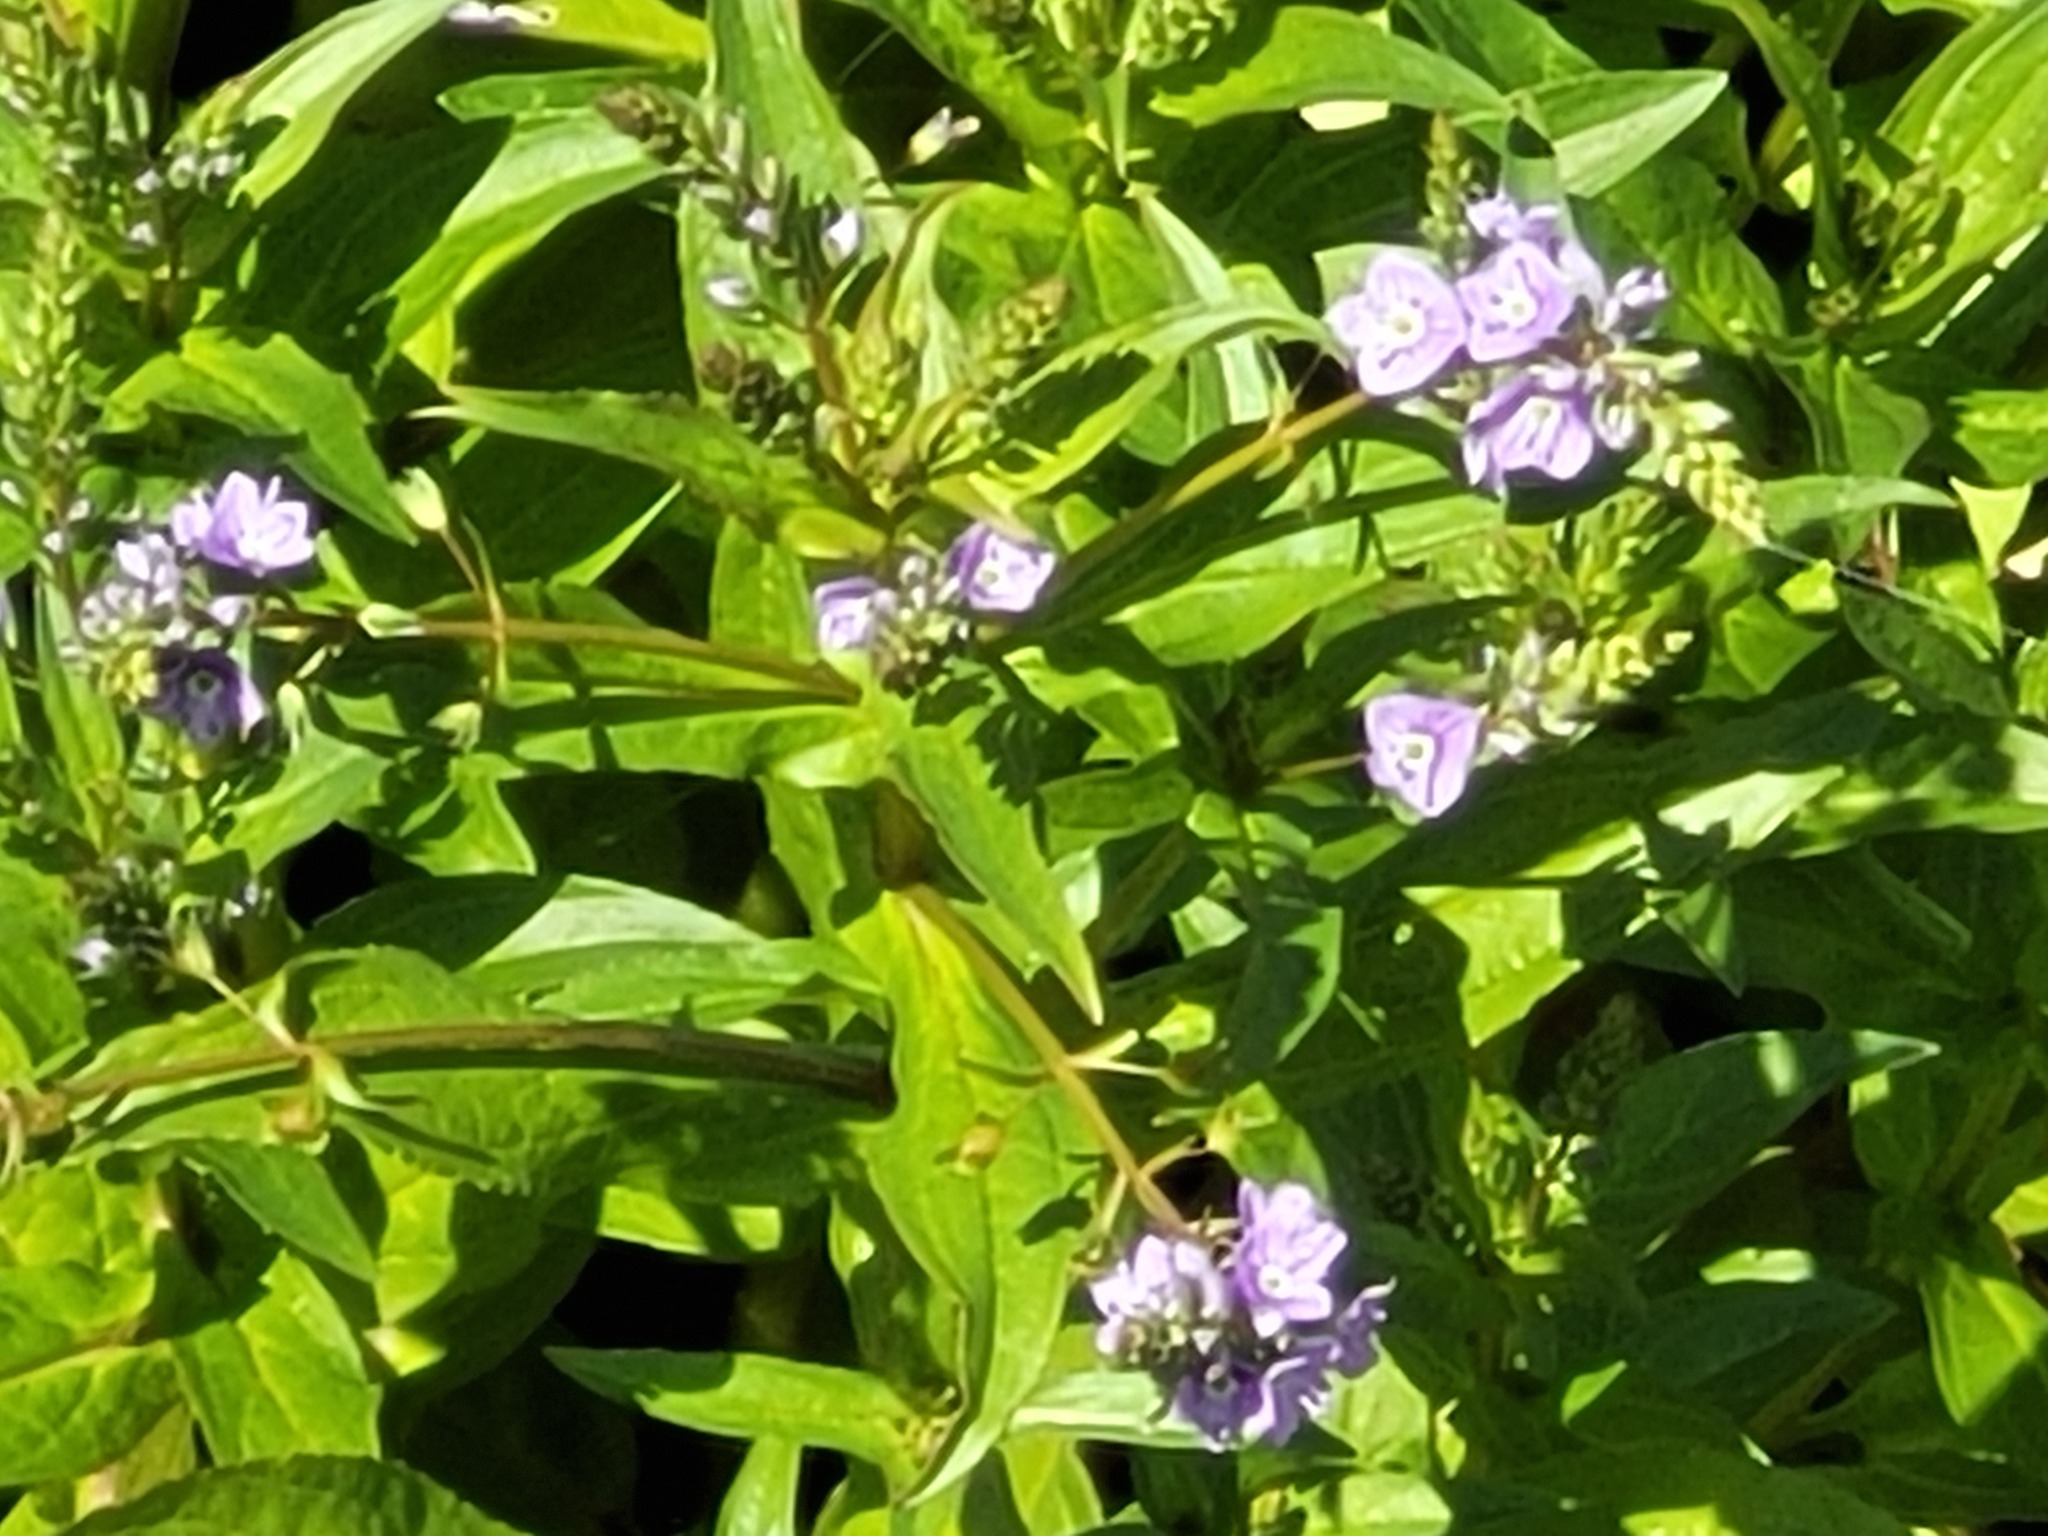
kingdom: Plantae
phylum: Tracheophyta
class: Magnoliopsida
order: Lamiales
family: Plantaginaceae
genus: Veronica
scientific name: Veronica anagallis-aquatica
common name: Water speedwell
